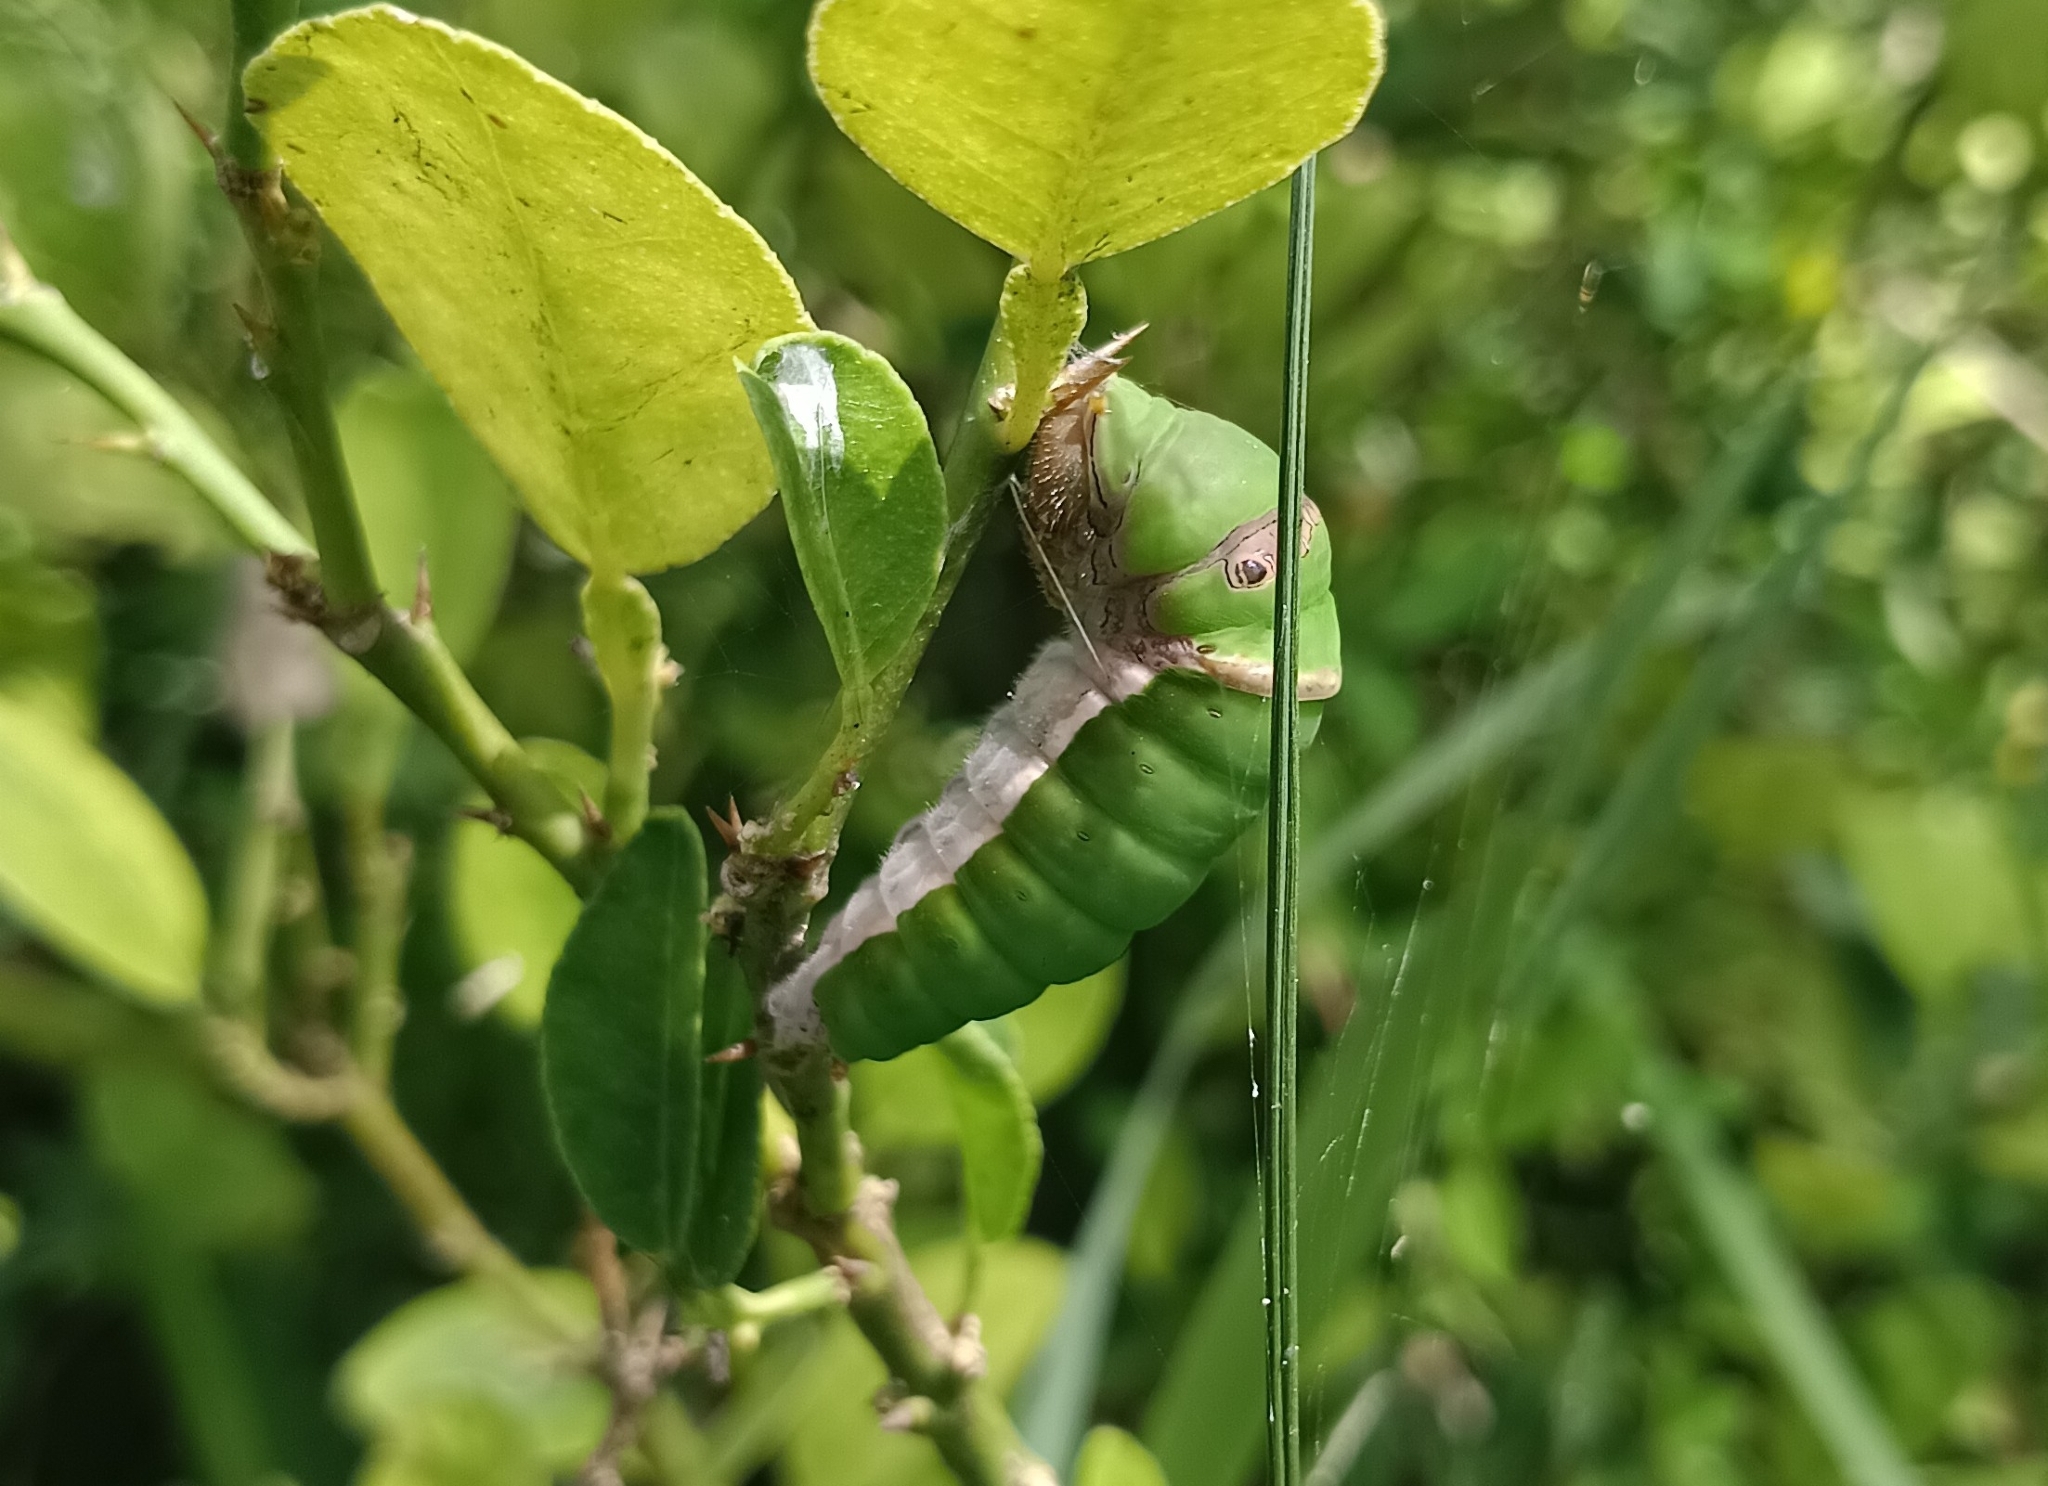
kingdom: Animalia
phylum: Arthropoda
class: Insecta
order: Lepidoptera
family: Papilionidae
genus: Papilio
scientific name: Papilio demoleus
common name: Lime butterfly
